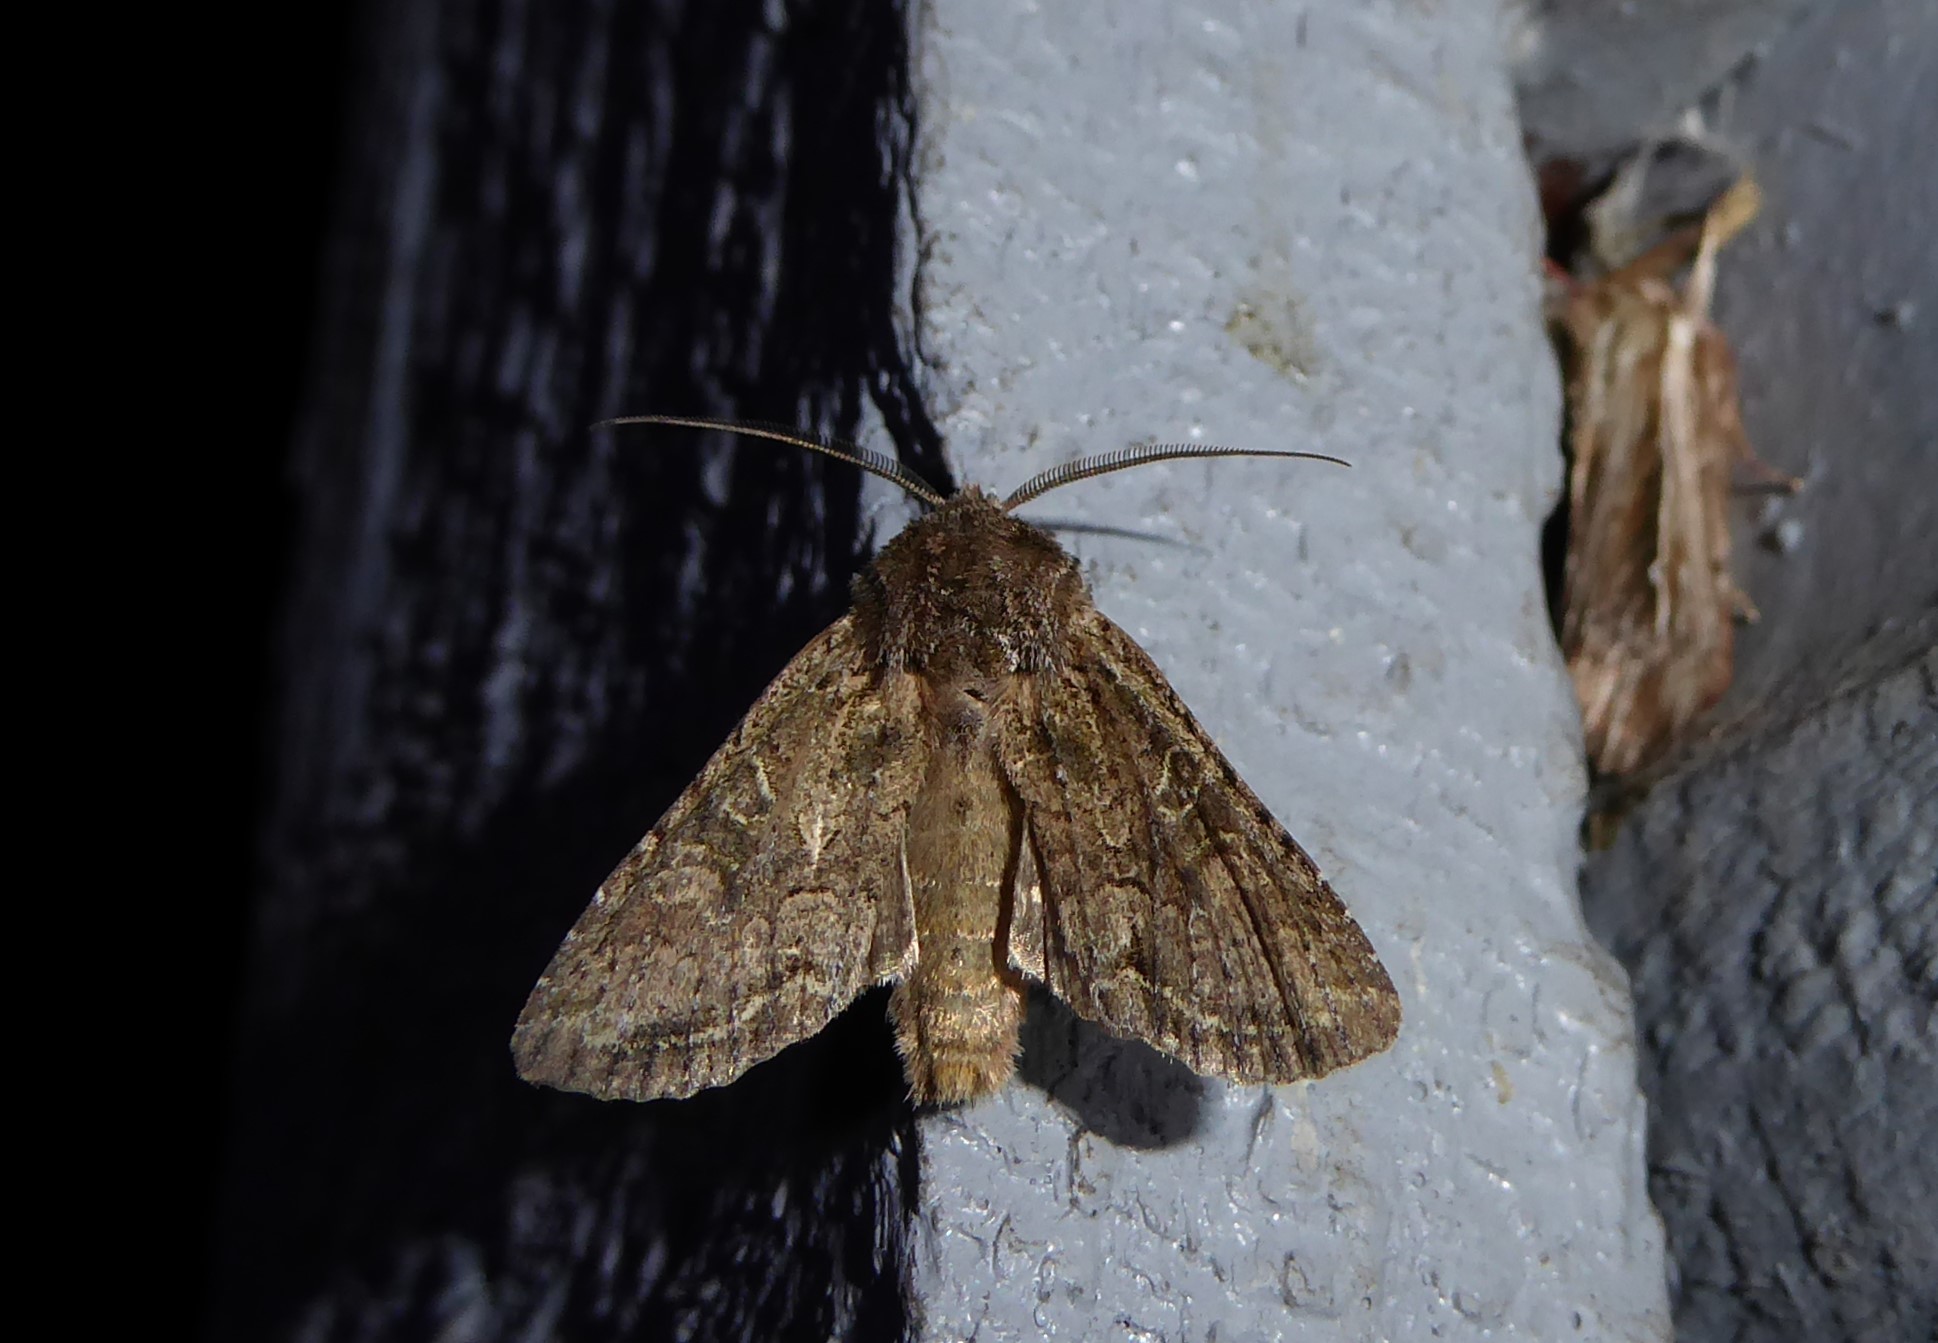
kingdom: Animalia
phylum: Arthropoda
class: Insecta
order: Lepidoptera
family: Noctuidae
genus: Ichneutica
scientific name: Ichneutica mutans
